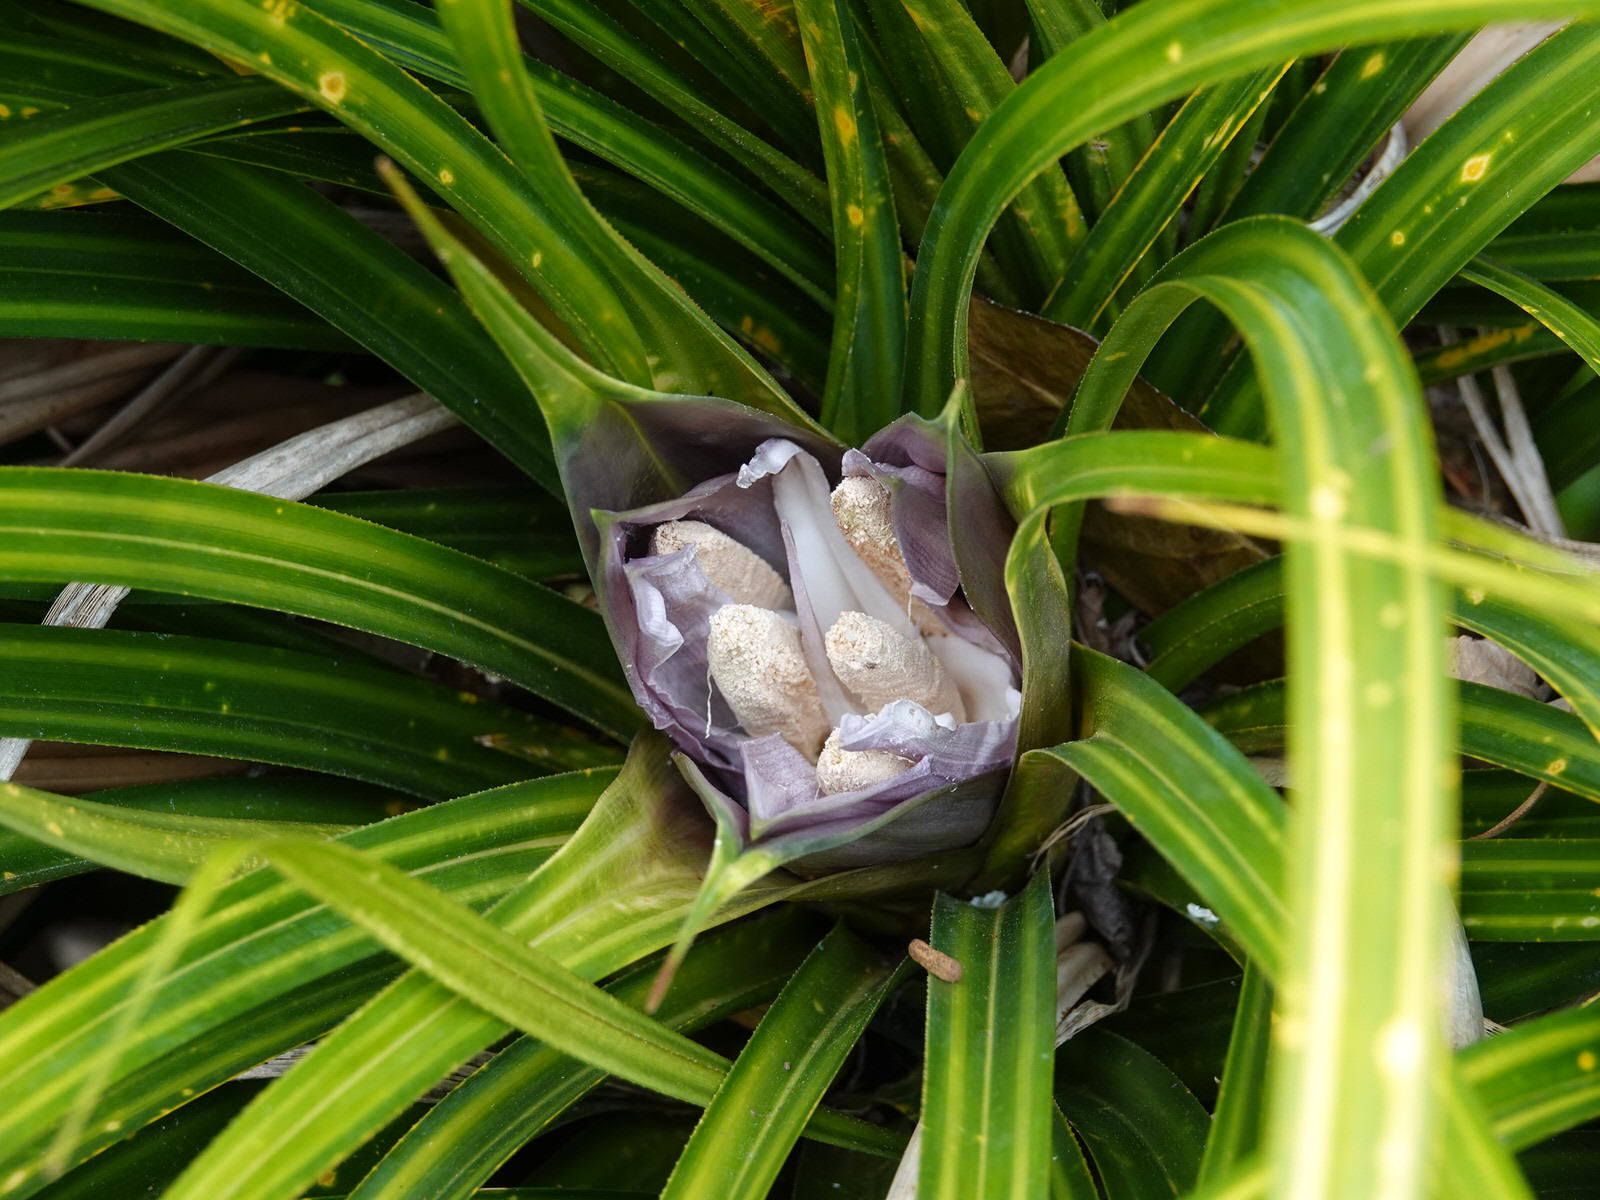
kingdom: Plantae
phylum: Tracheophyta
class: Liliopsida
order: Pandanales
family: Pandanaceae
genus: Freycinetia
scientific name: Freycinetia banksii
